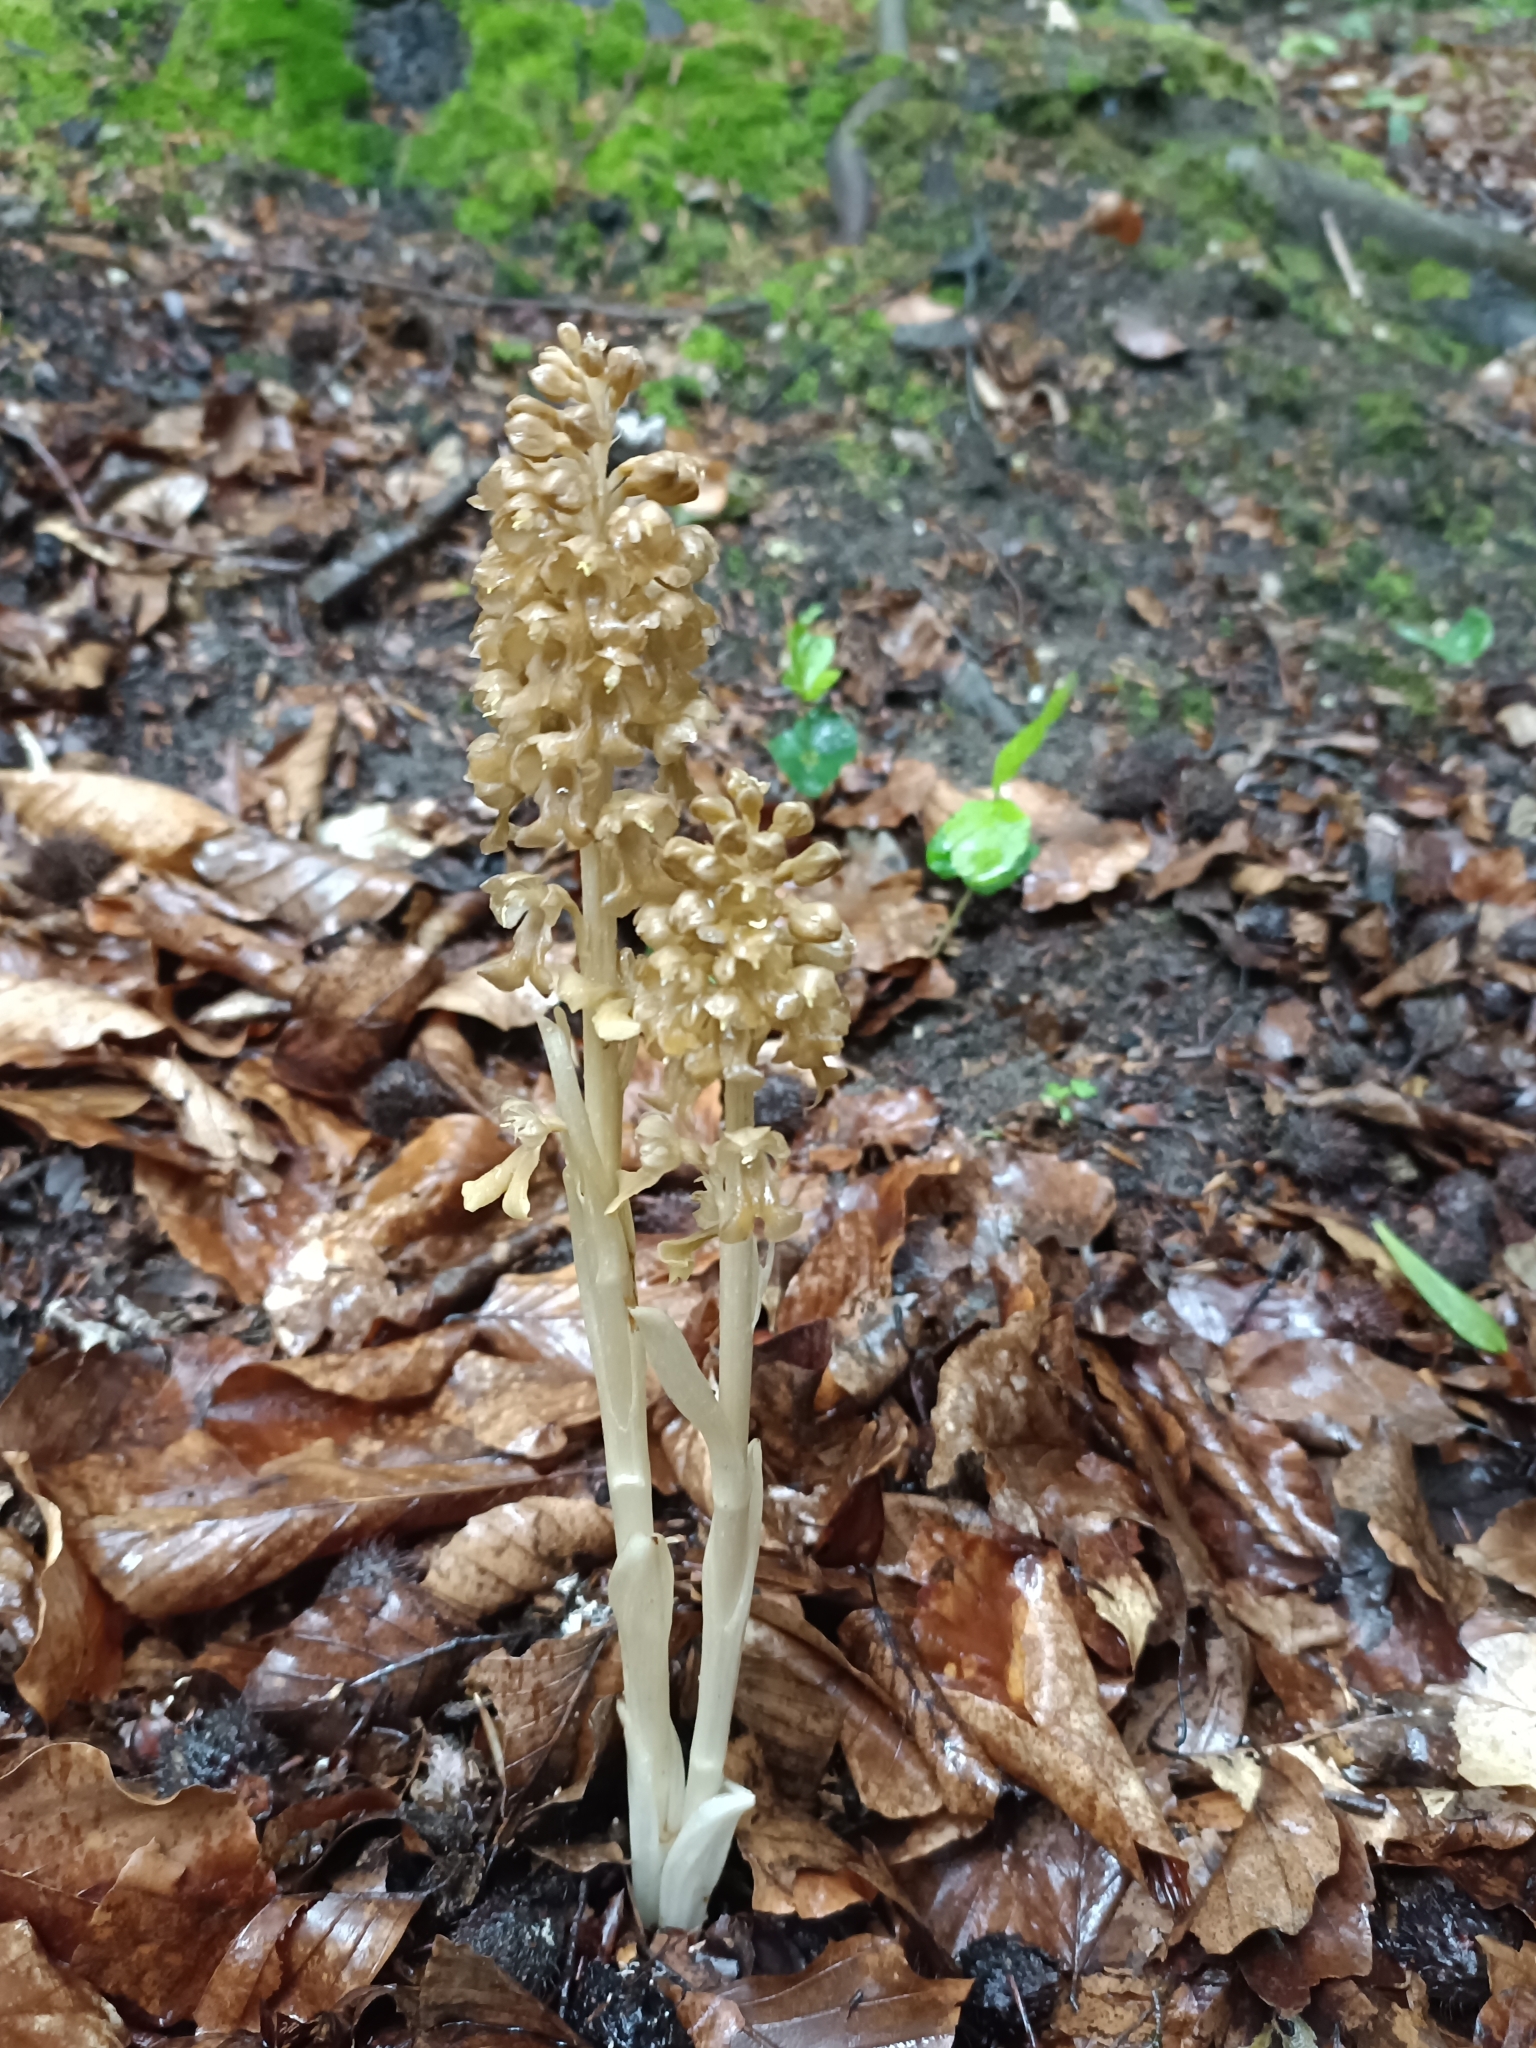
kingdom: Plantae
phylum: Tracheophyta
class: Liliopsida
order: Asparagales
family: Orchidaceae
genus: Neottia
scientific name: Neottia nidus-avis
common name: Bird's-nest orchid
